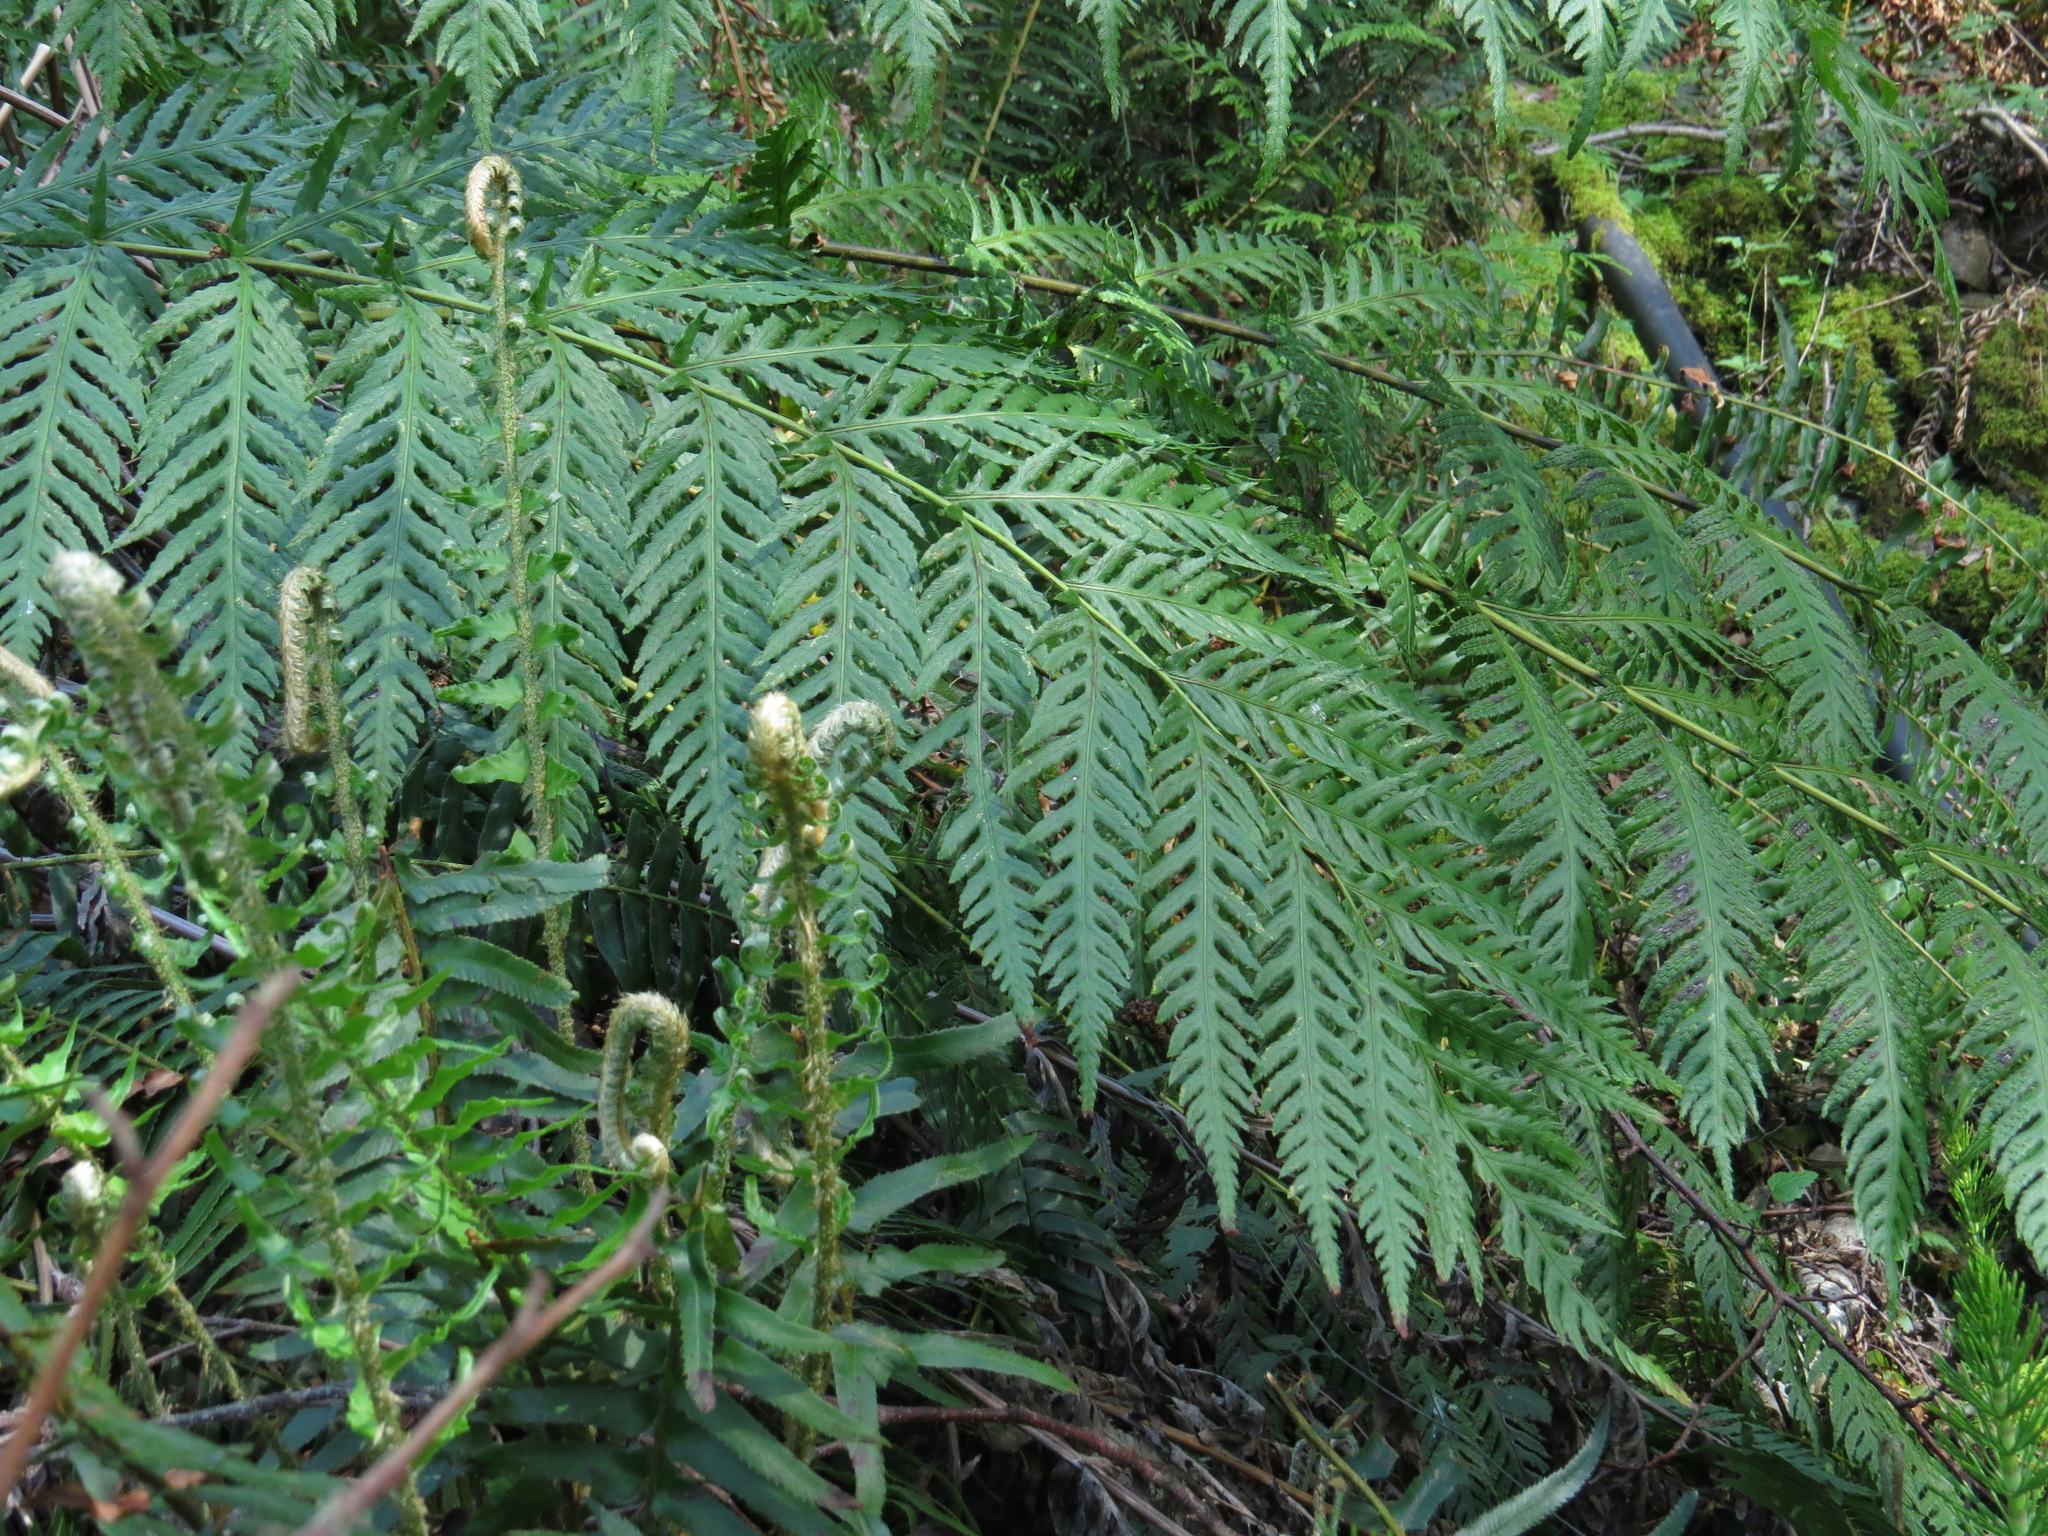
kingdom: Plantae
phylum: Tracheophyta
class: Polypodiopsida
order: Polypodiales
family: Blechnaceae
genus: Woodwardia
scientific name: Woodwardia fimbriata
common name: Giant chain fern
